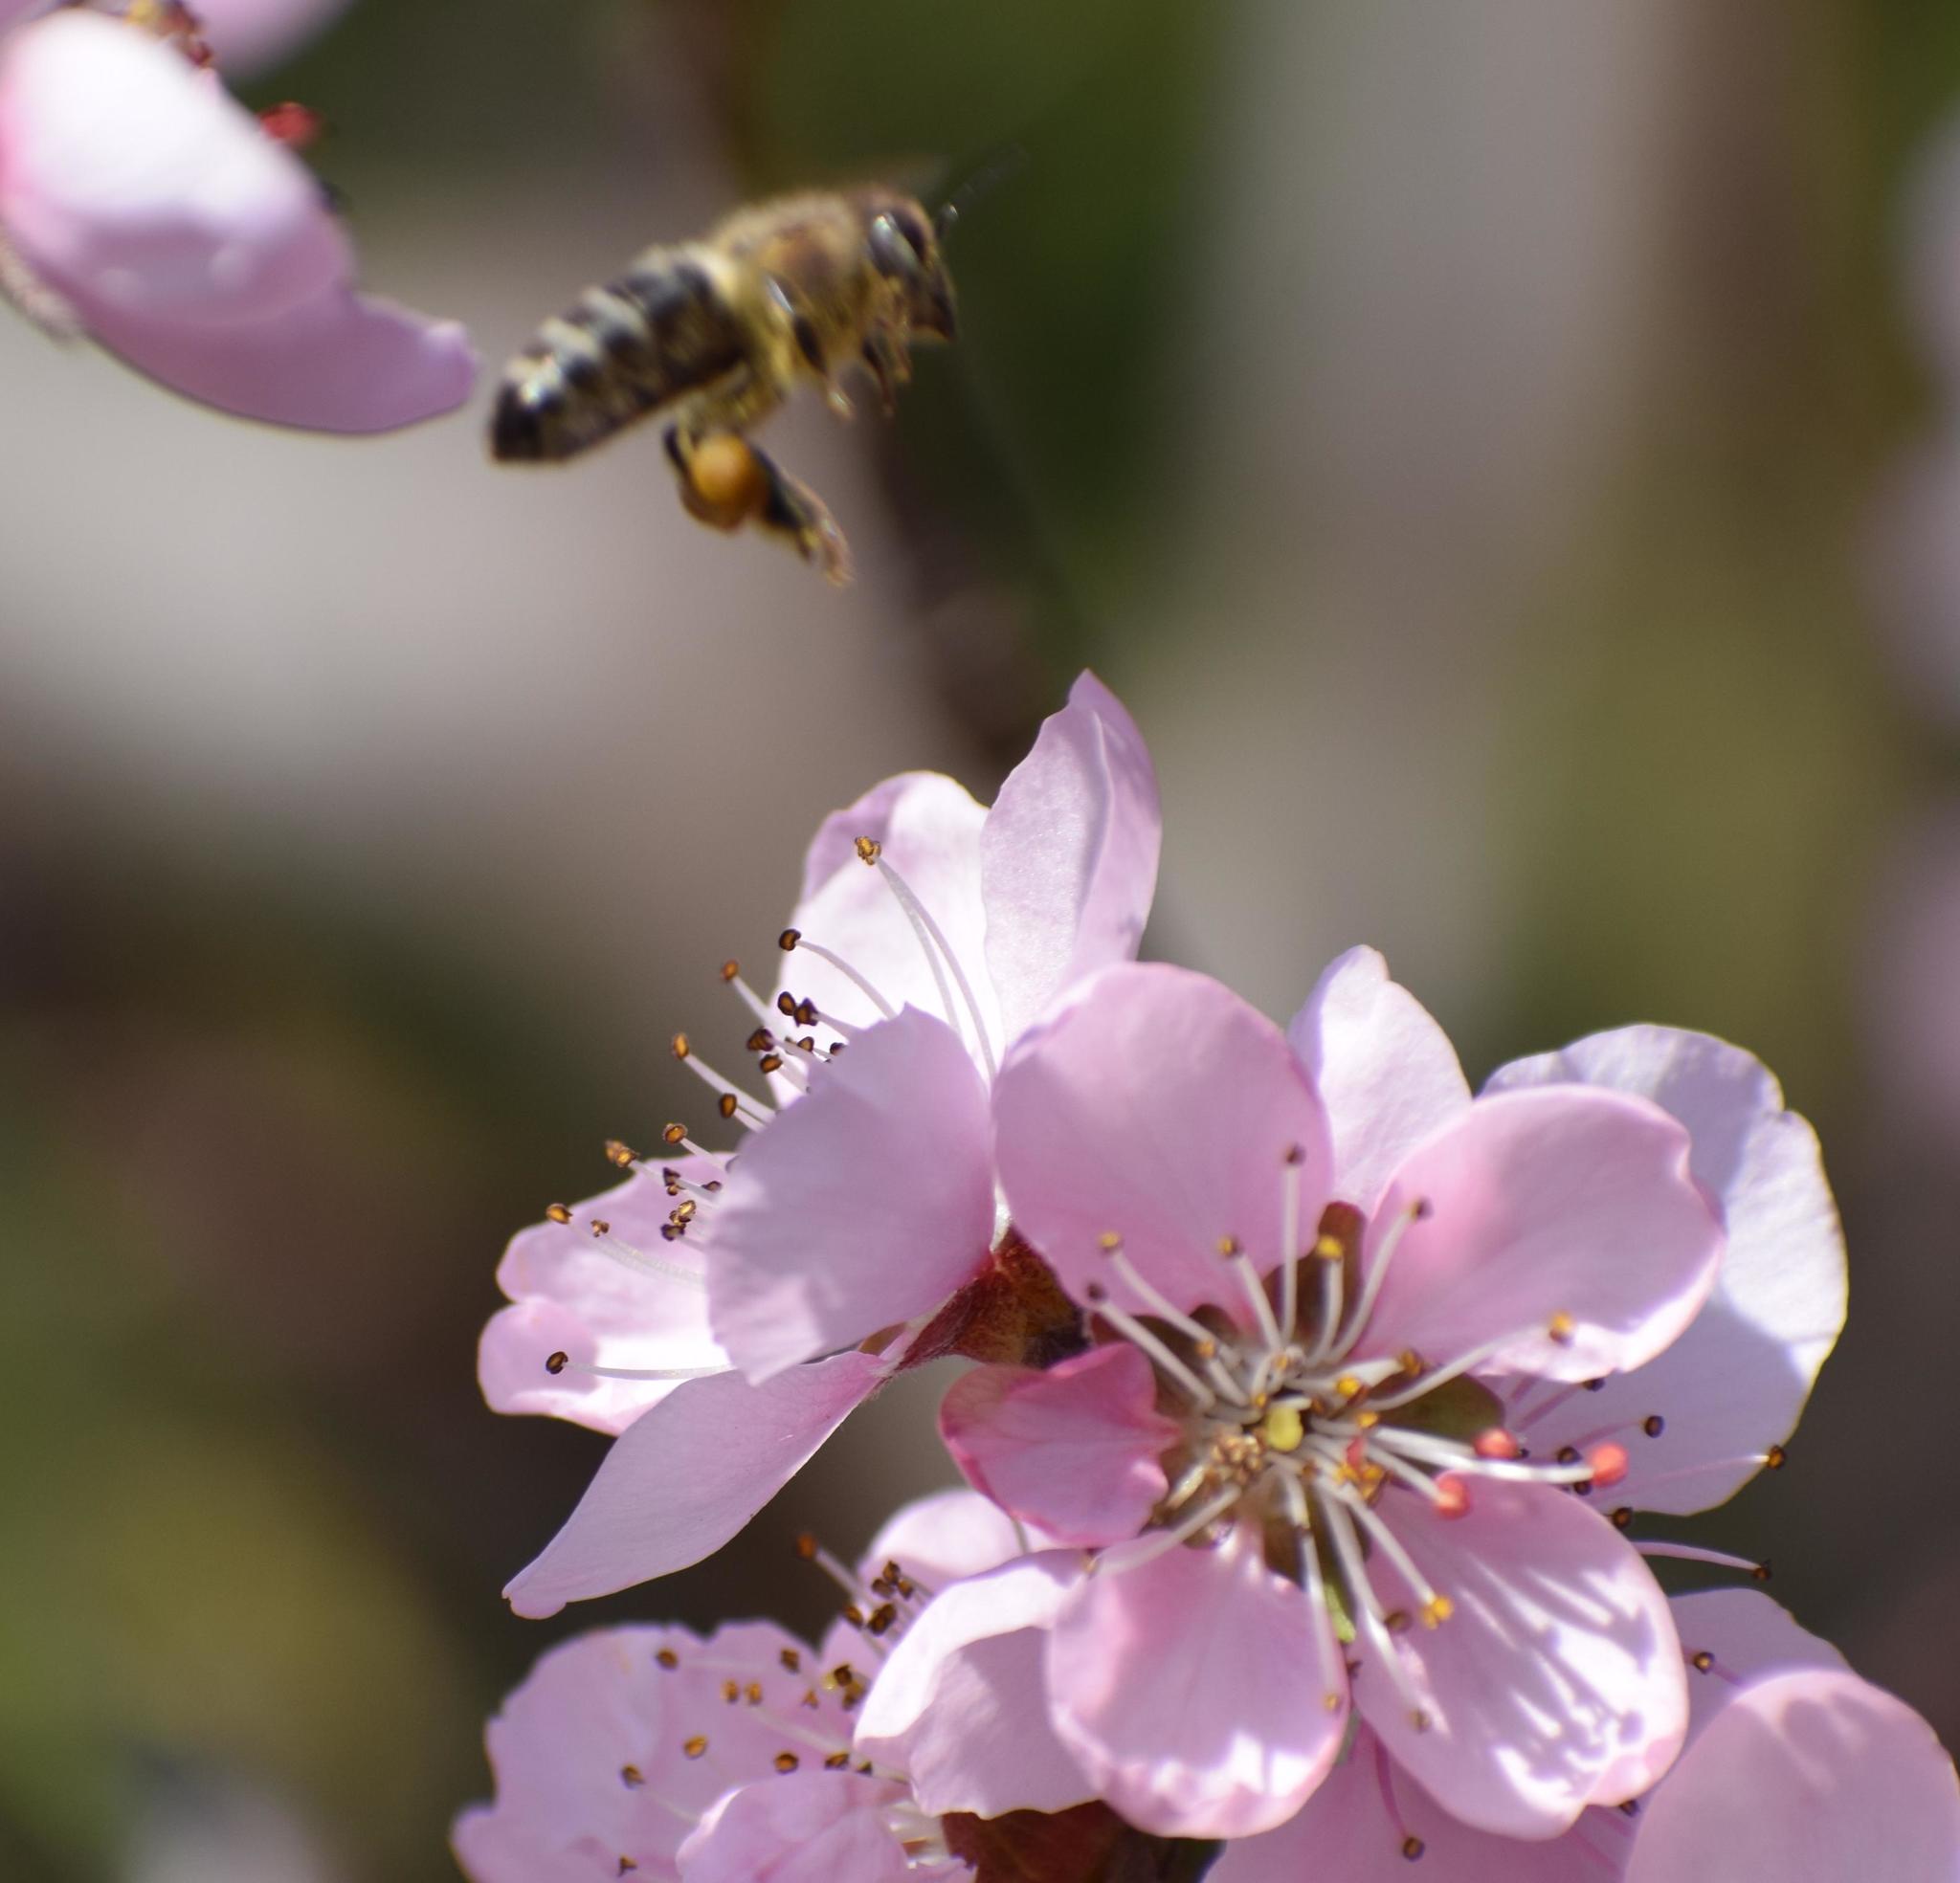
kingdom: Animalia
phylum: Arthropoda
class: Insecta
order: Hymenoptera
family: Apidae
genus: Apis
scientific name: Apis mellifera
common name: Honey bee
